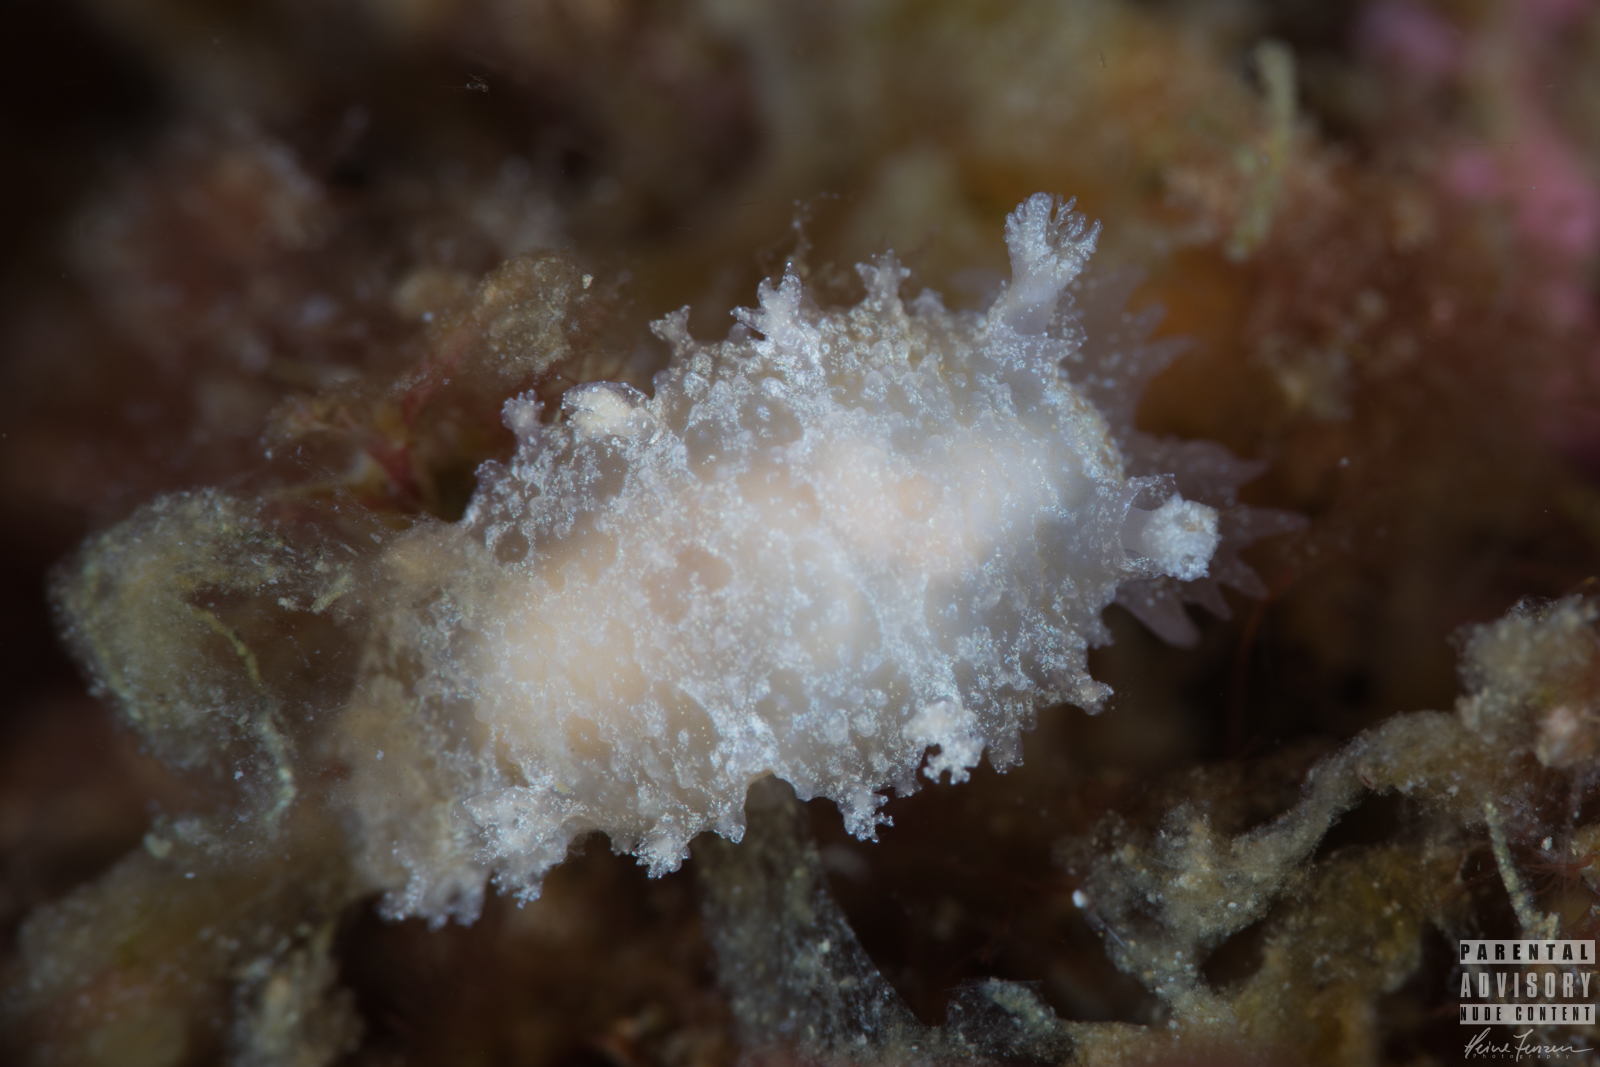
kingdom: Animalia
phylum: Mollusca
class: Gastropoda
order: Nudibranchia
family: Tritoniidae
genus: Tritonia
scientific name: Tritonia hombergii
